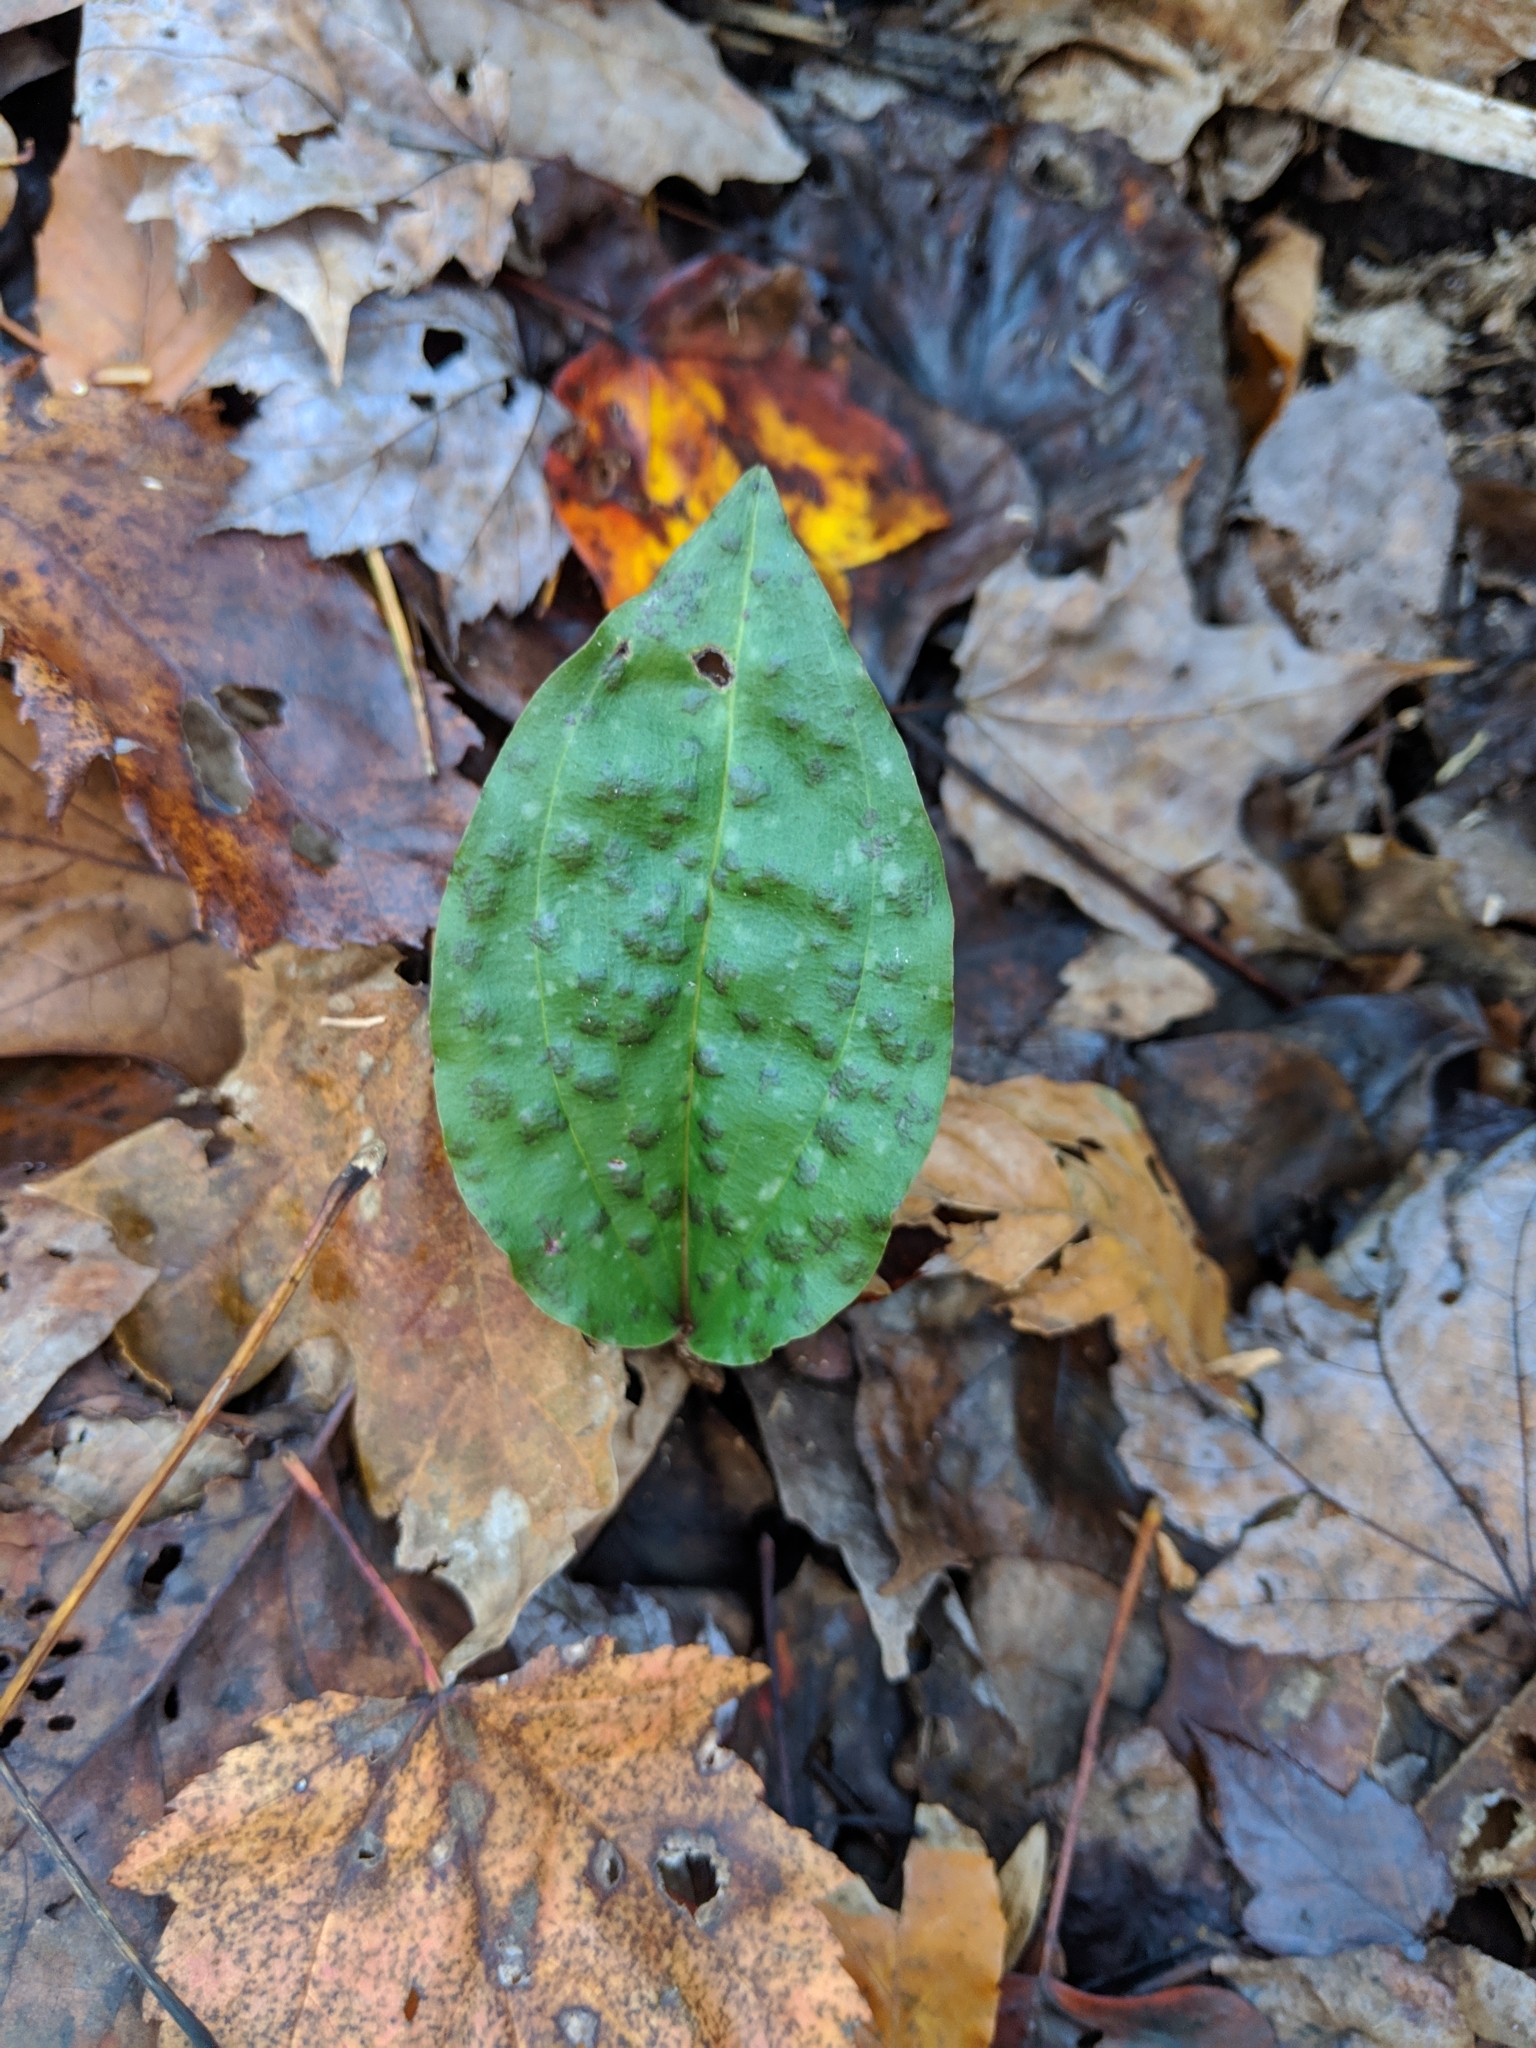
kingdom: Plantae
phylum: Tracheophyta
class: Liliopsida
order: Asparagales
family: Orchidaceae
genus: Tipularia
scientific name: Tipularia discolor
